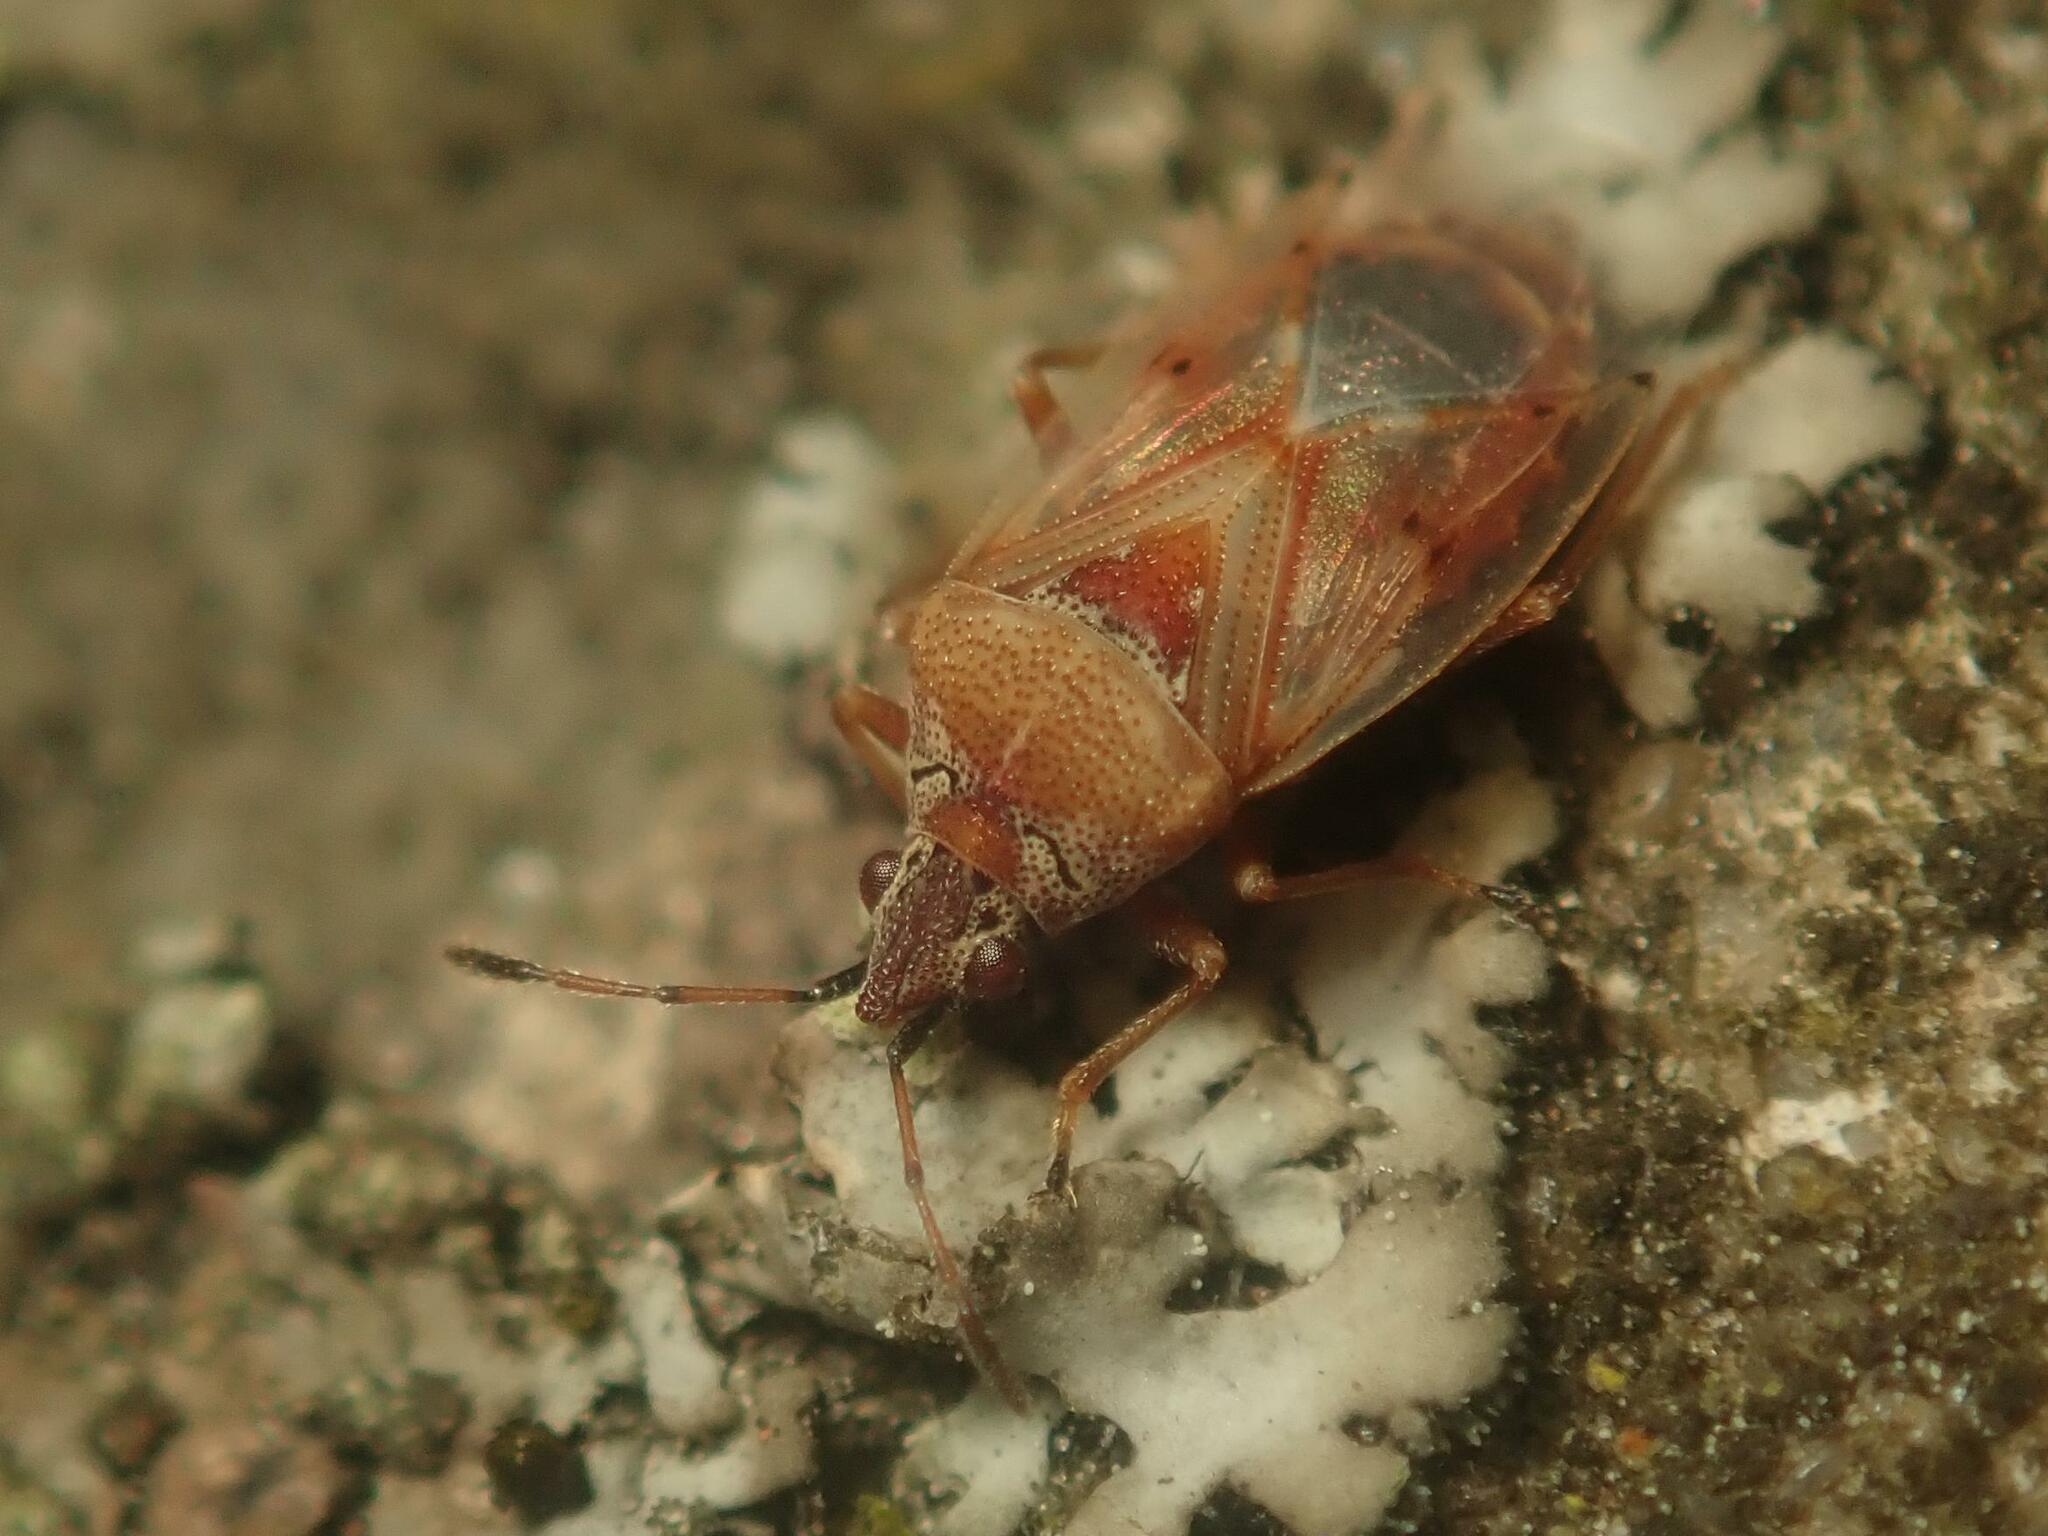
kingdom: Animalia
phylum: Arthropoda
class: Insecta
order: Hemiptera
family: Lygaeidae
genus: Kleidocerys
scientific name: Kleidocerys resedae
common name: Birch catkin bug
